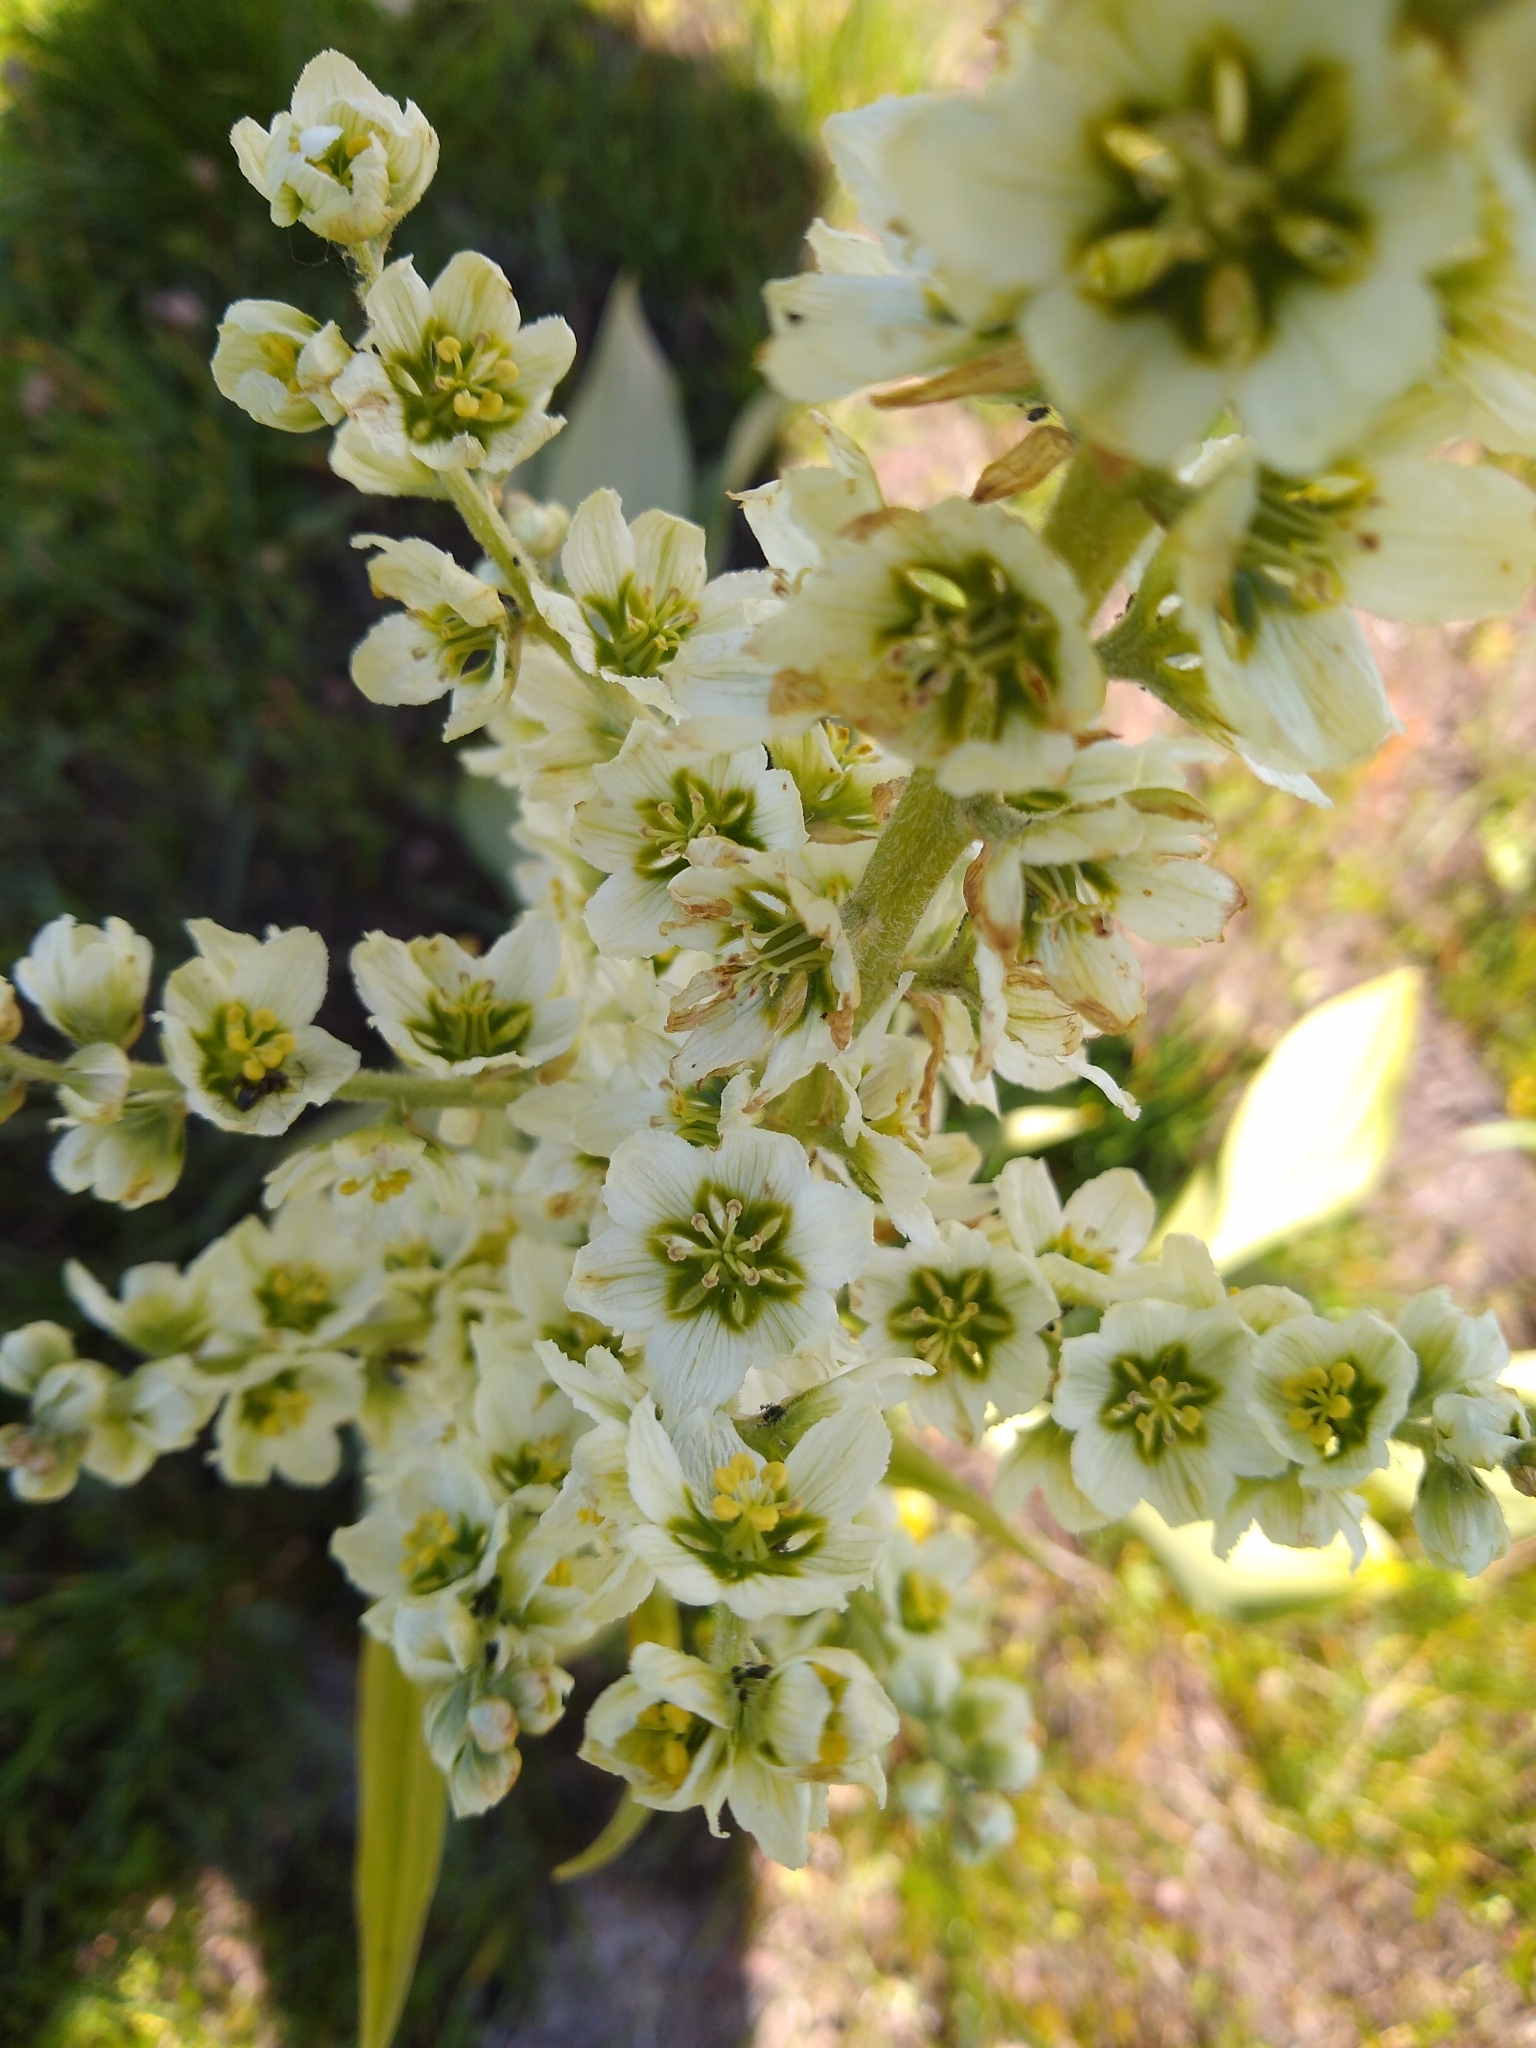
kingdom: Plantae
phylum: Tracheophyta
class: Liliopsida
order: Liliales
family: Melanthiaceae
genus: Veratrum
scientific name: Veratrum californicum
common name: California veratrum
